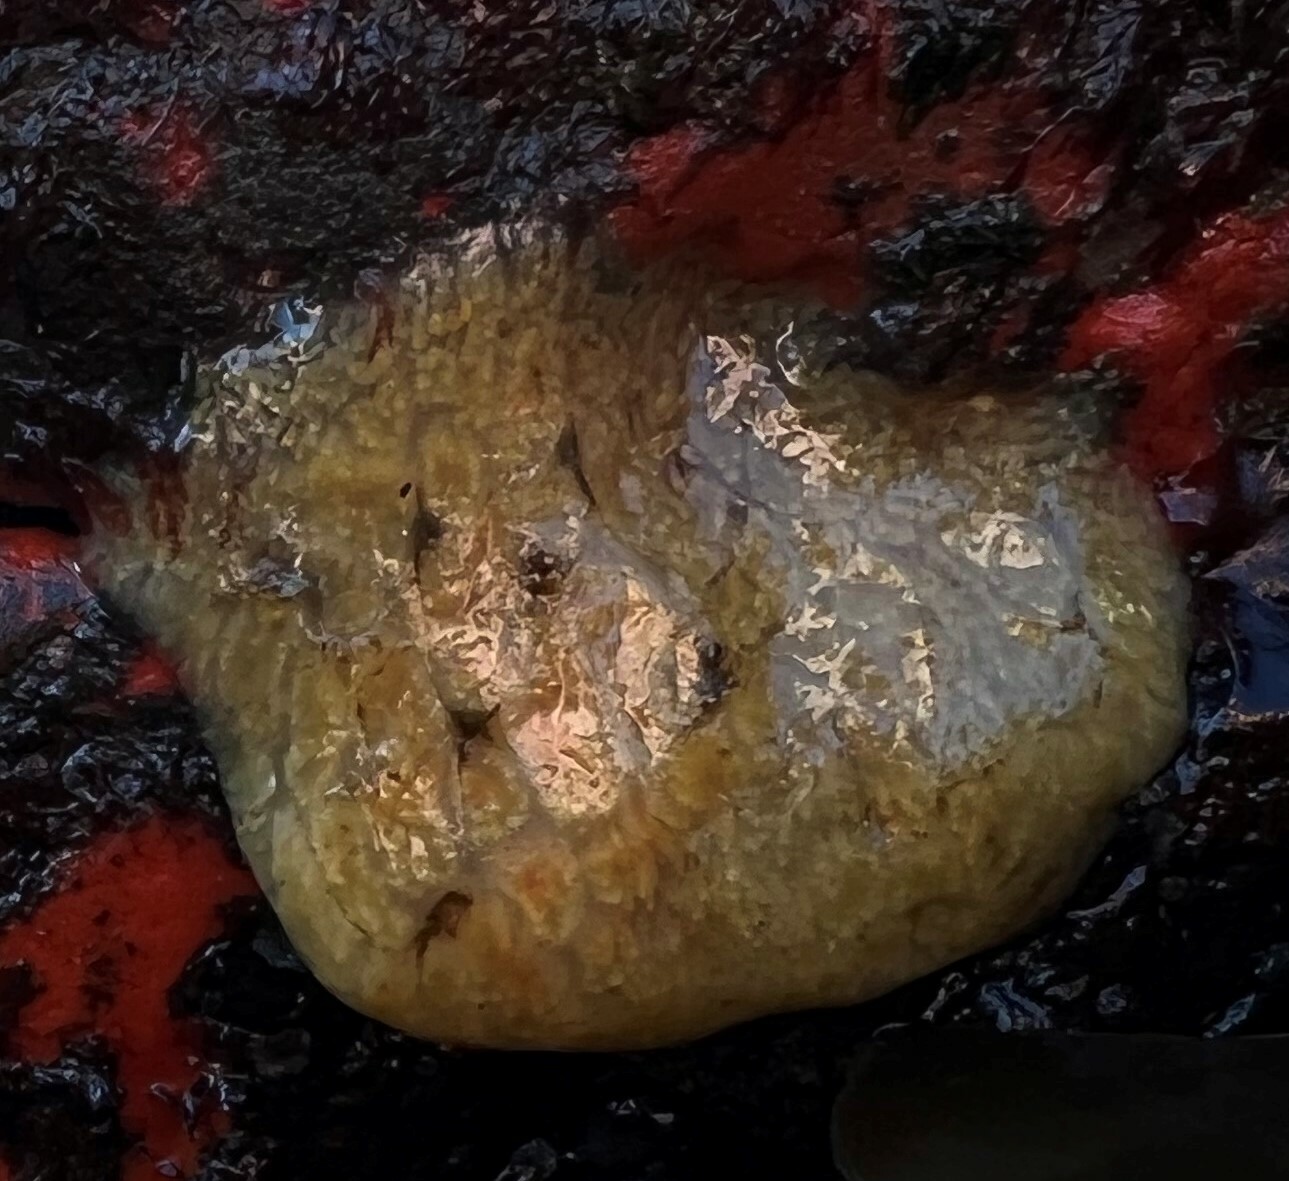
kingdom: Animalia
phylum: Chordata
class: Ascidiacea
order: Aplousobranchia
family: Polyclinidae
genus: Aplidium
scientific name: Aplidium californicum
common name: Sea pork
